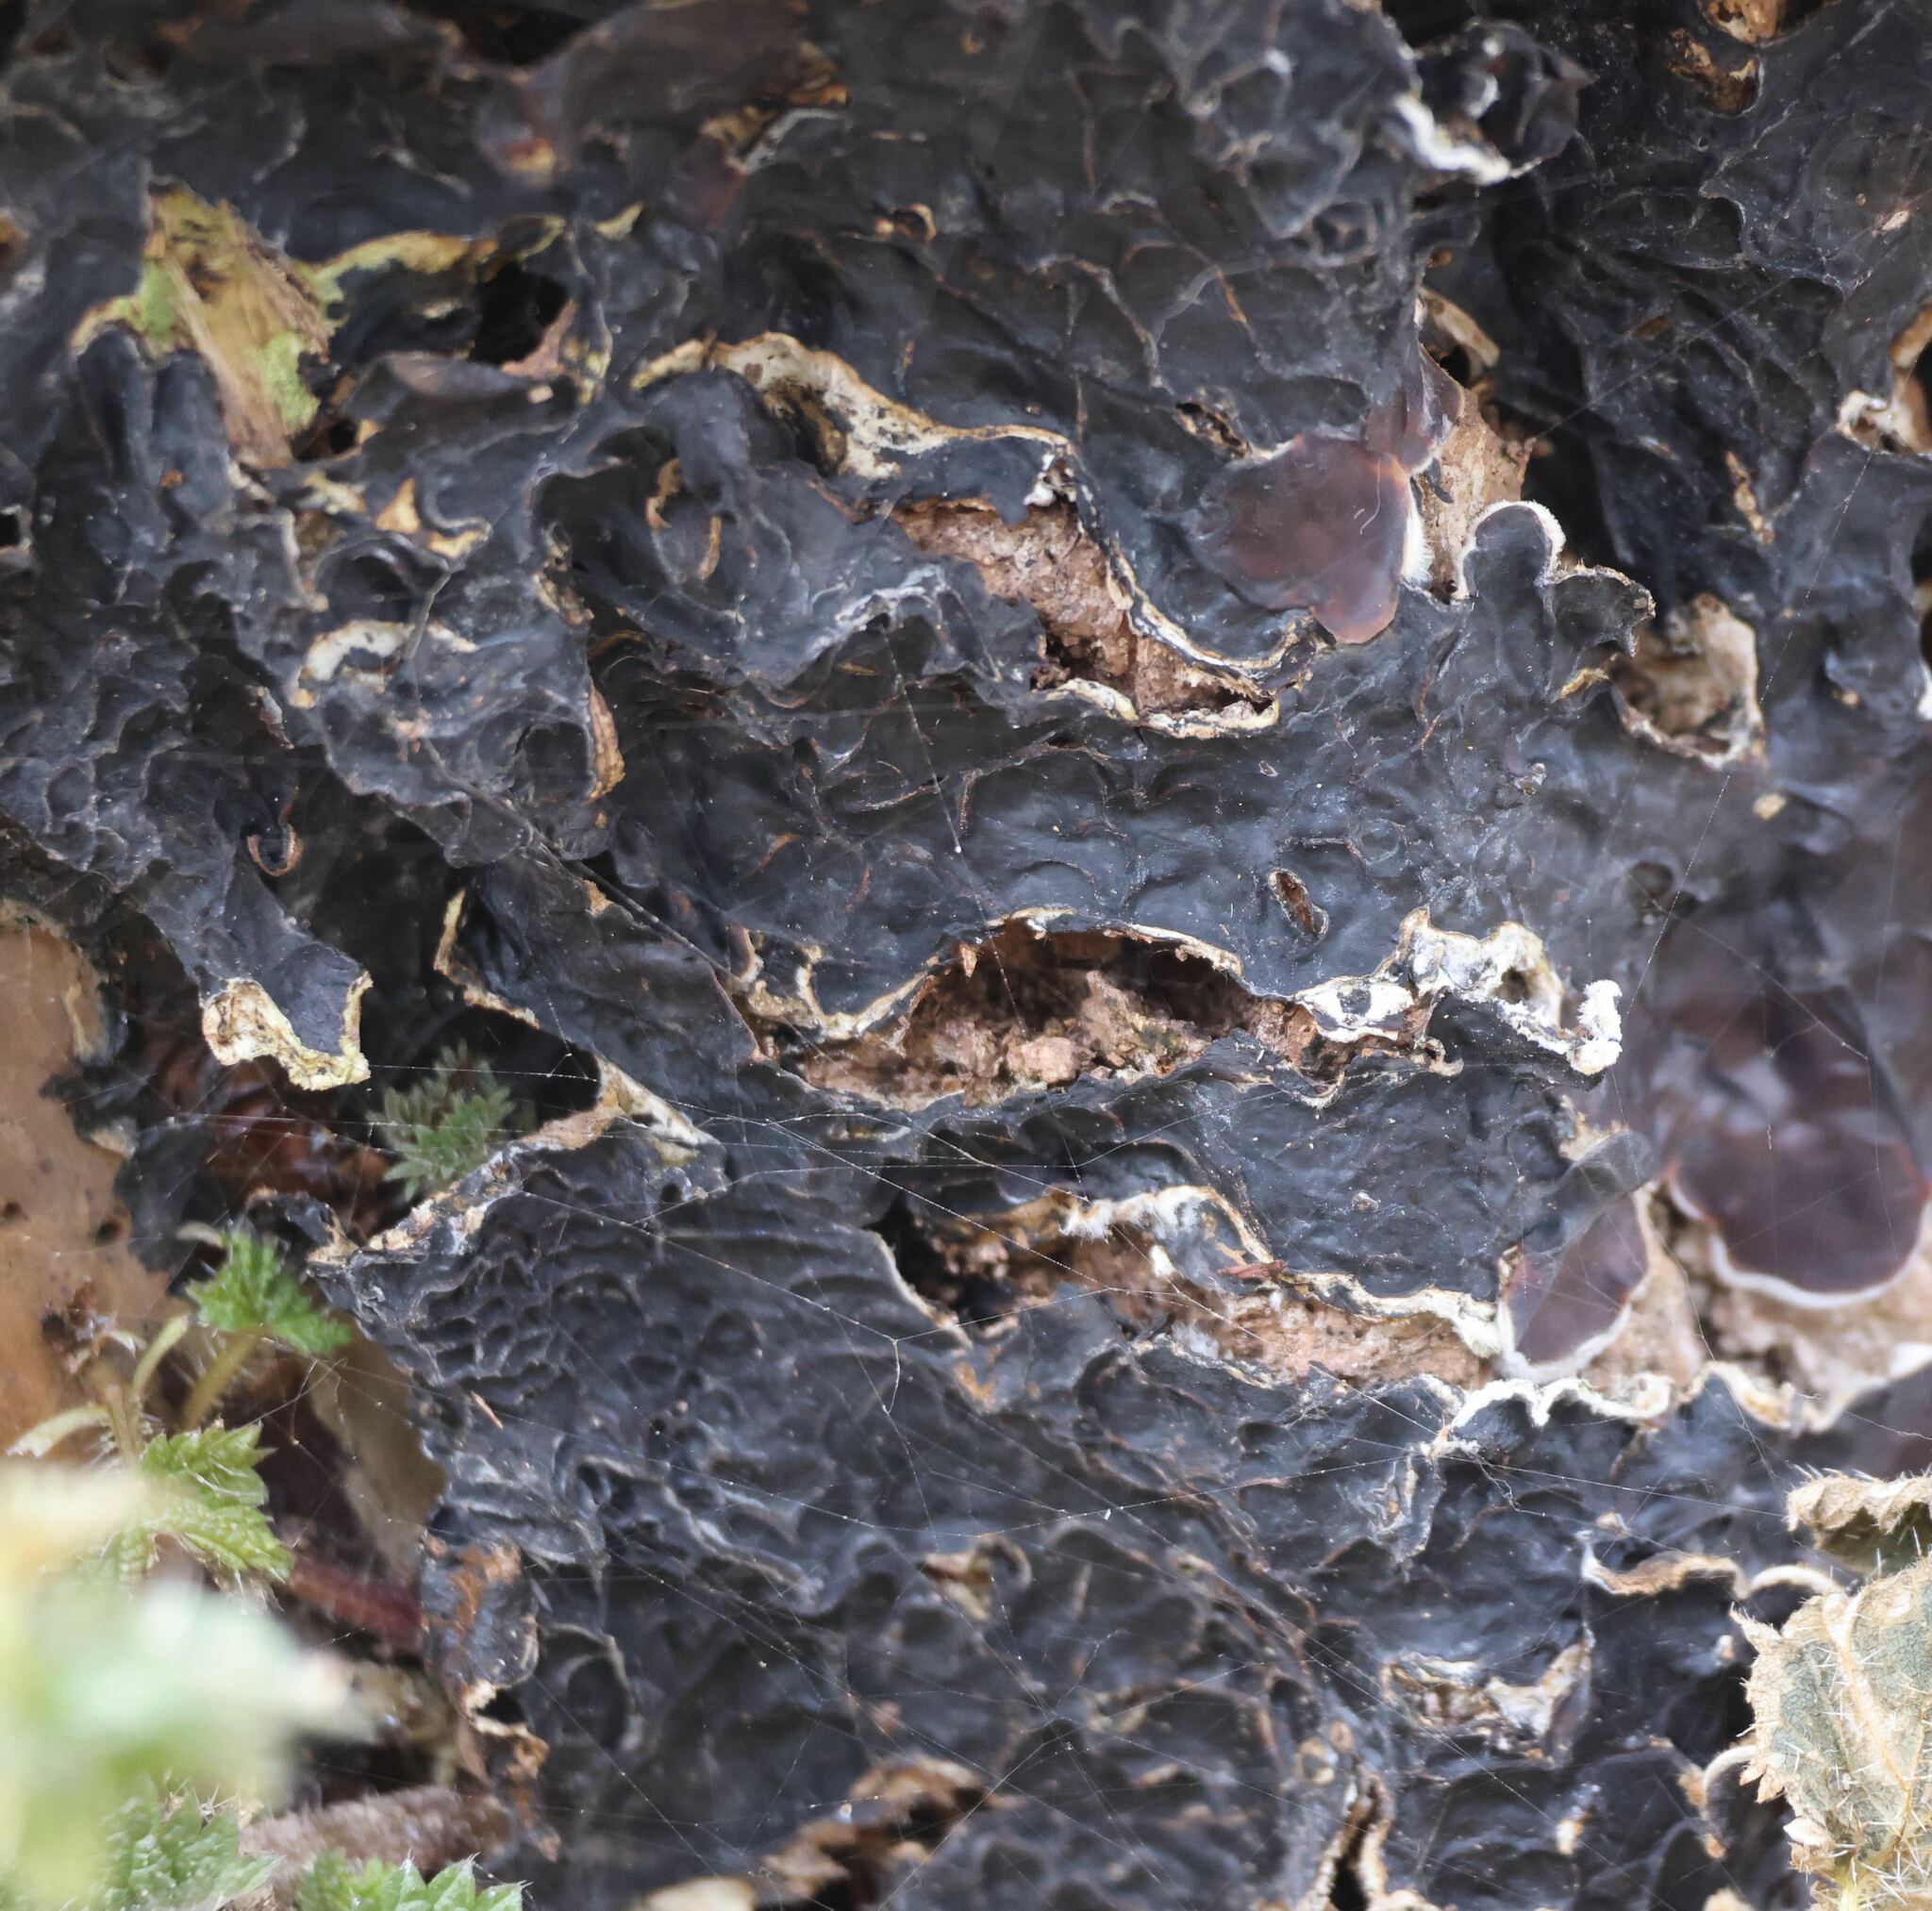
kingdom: Fungi
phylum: Basidiomycota
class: Agaricomycetes
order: Auriculariales
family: Auriculariaceae
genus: Auricularia
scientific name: Auricularia mesenterica
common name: Tripe fungus
